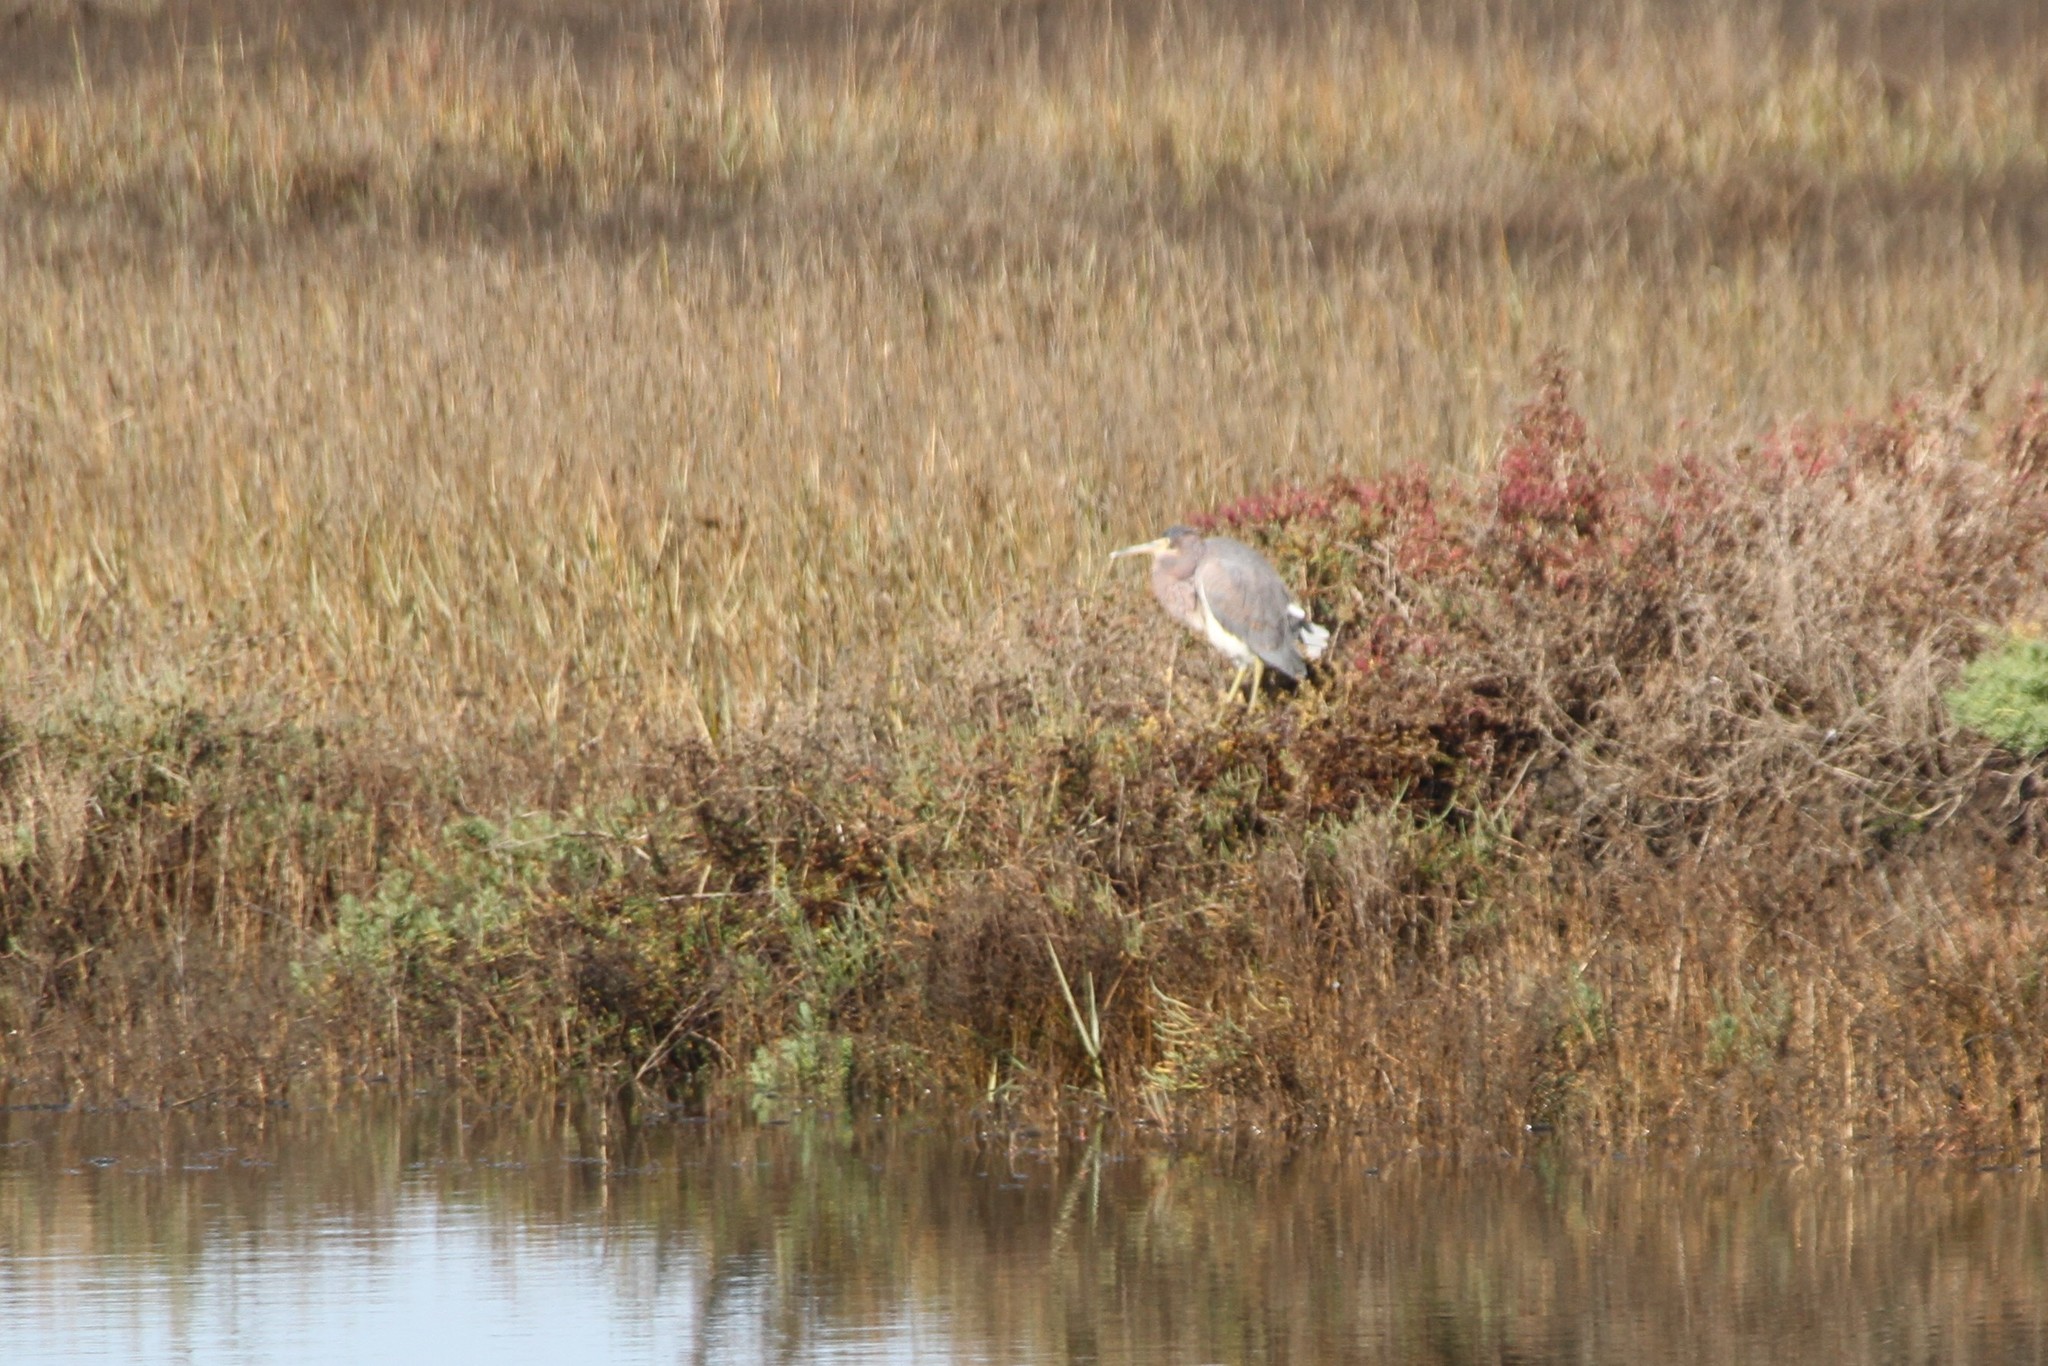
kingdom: Animalia
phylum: Chordata
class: Aves
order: Pelecaniformes
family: Ardeidae
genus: Egretta
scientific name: Egretta tricolor
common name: Tricolored heron
